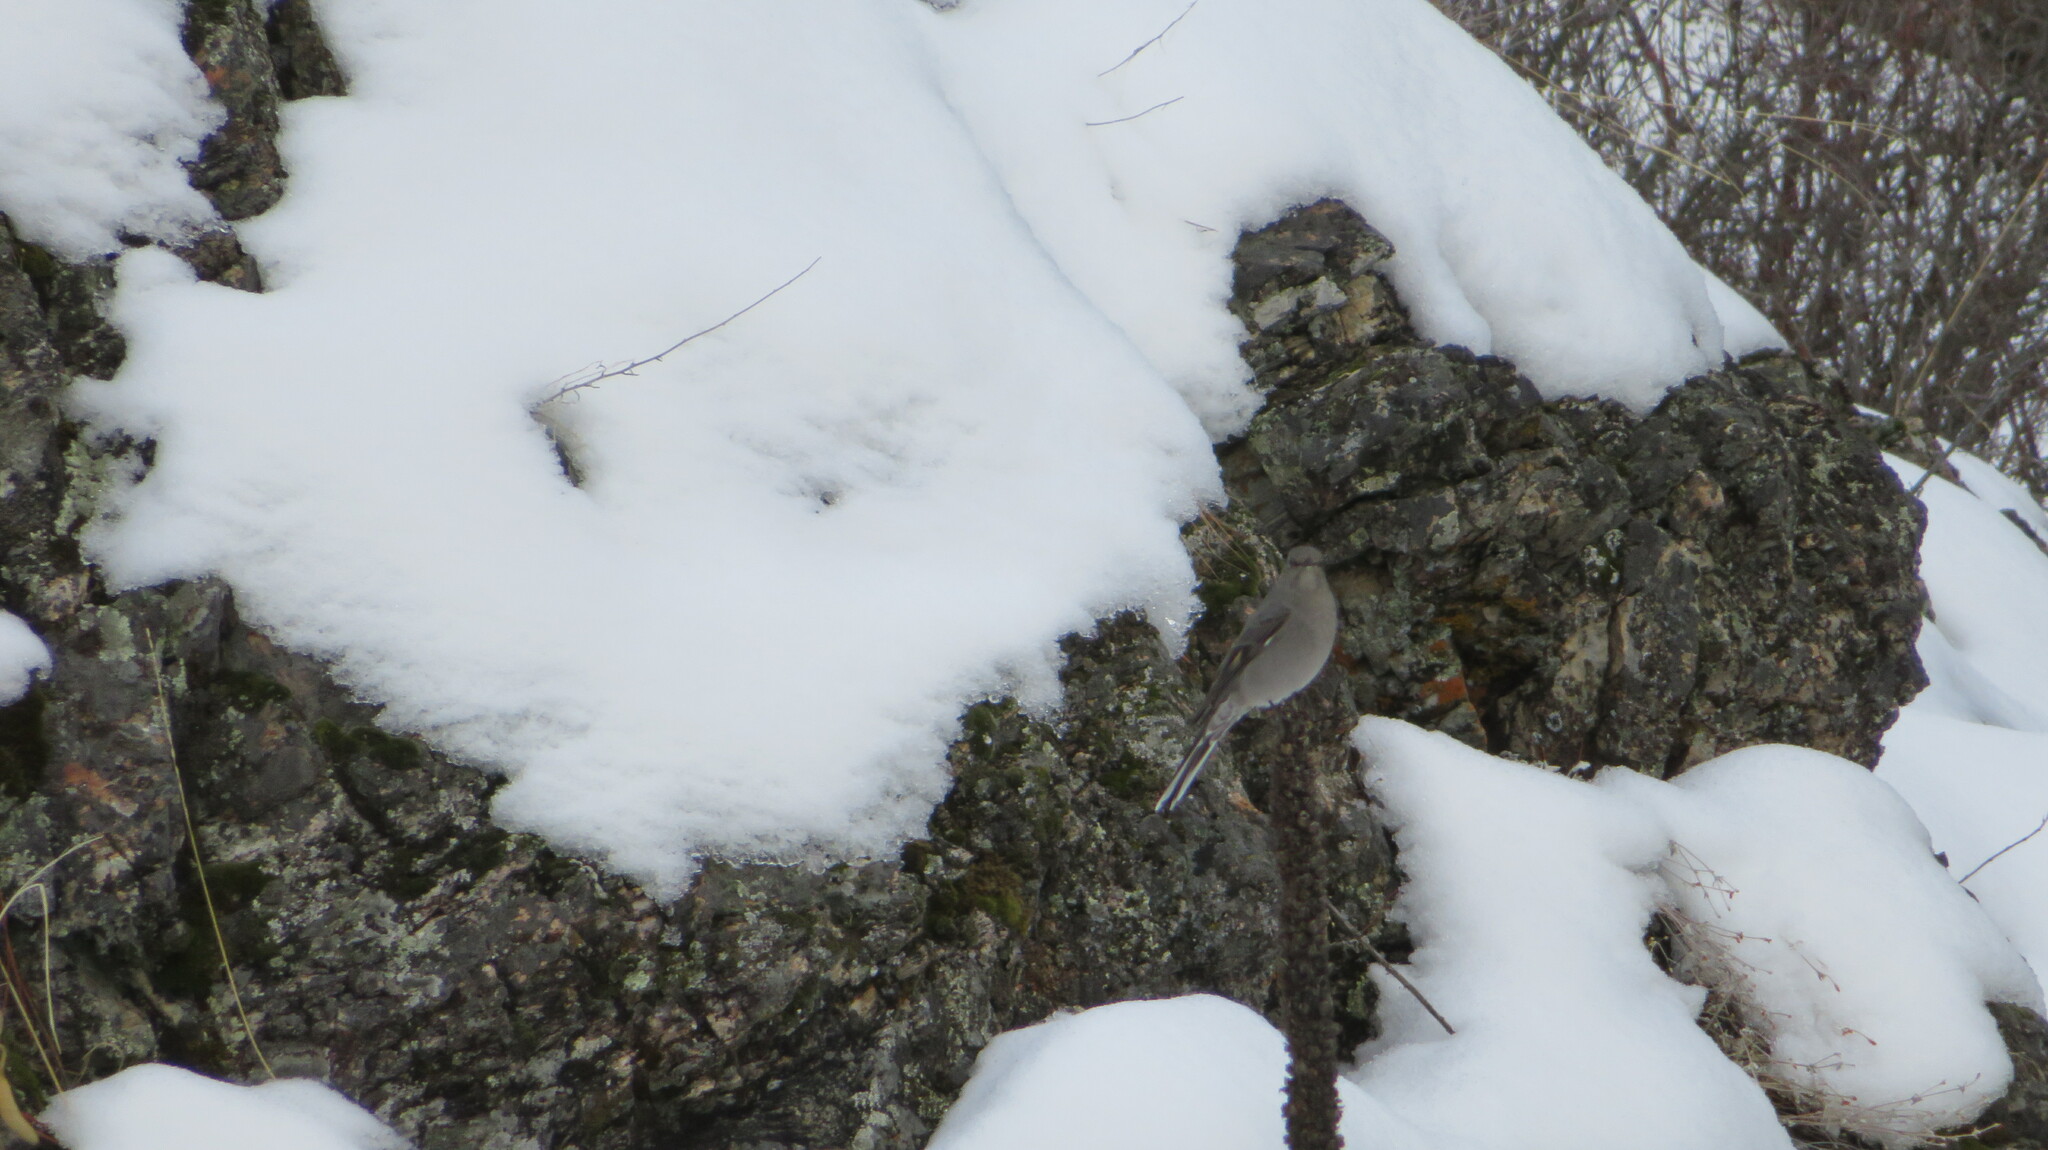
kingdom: Animalia
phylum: Chordata
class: Aves
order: Passeriformes
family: Turdidae
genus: Myadestes
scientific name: Myadestes townsendi
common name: Townsend's solitaire
